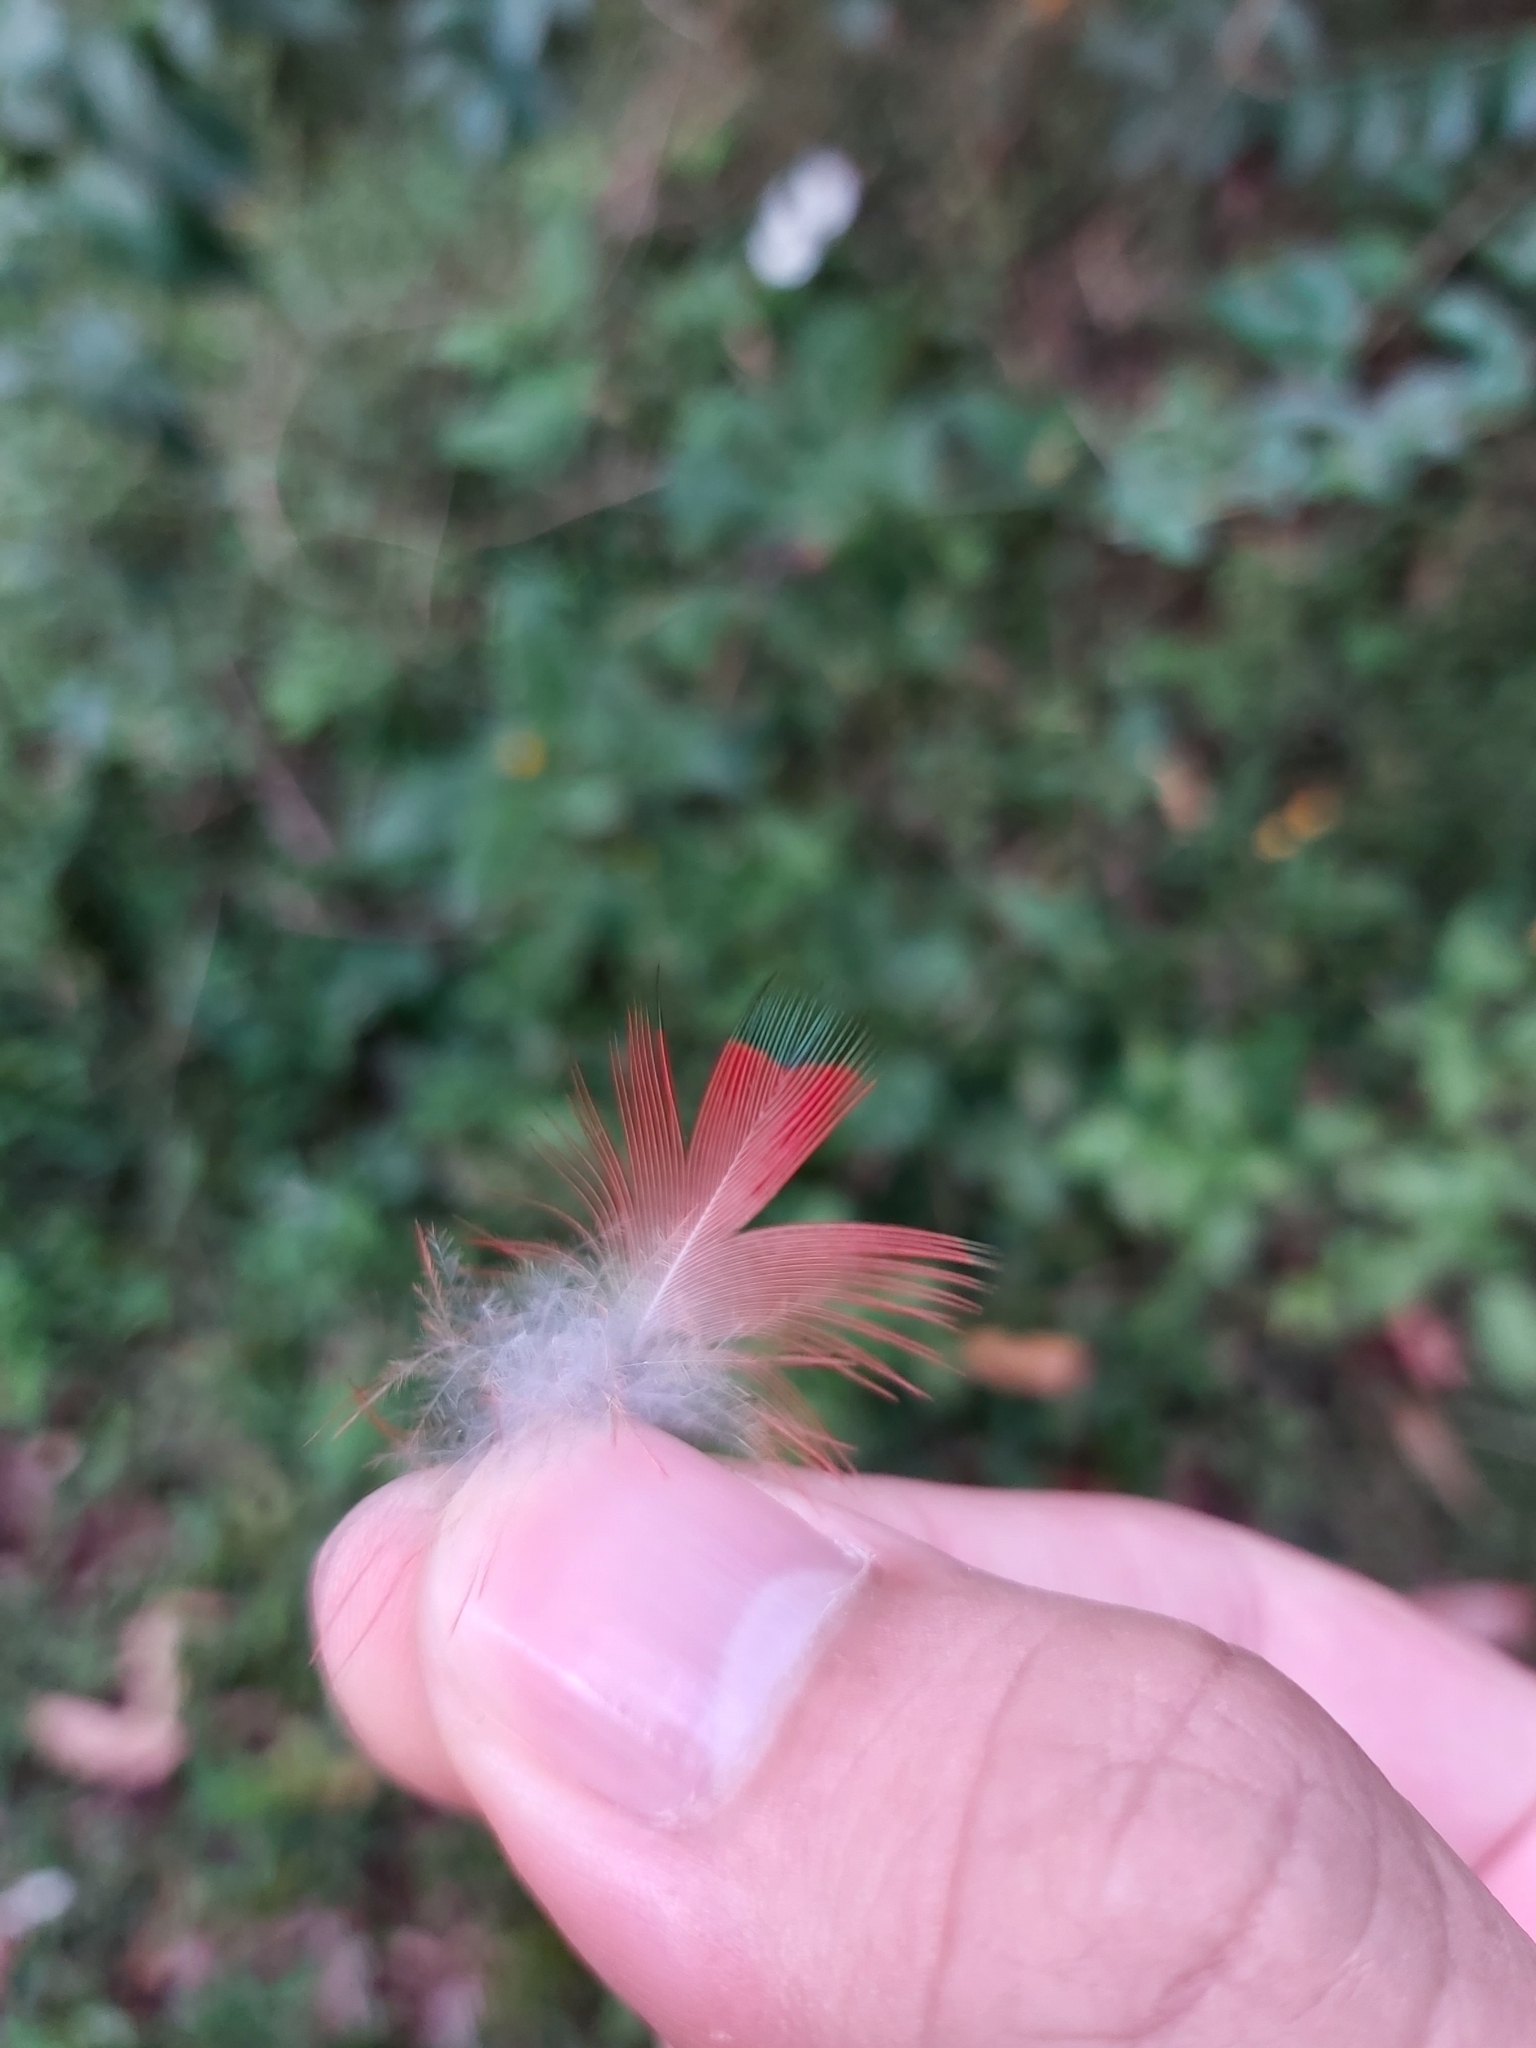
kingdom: Animalia
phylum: Chordata
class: Aves
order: Psittaciformes
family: Psittacidae
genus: Trichoglossus
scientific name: Trichoglossus haematodus
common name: Coconut lorikeet
